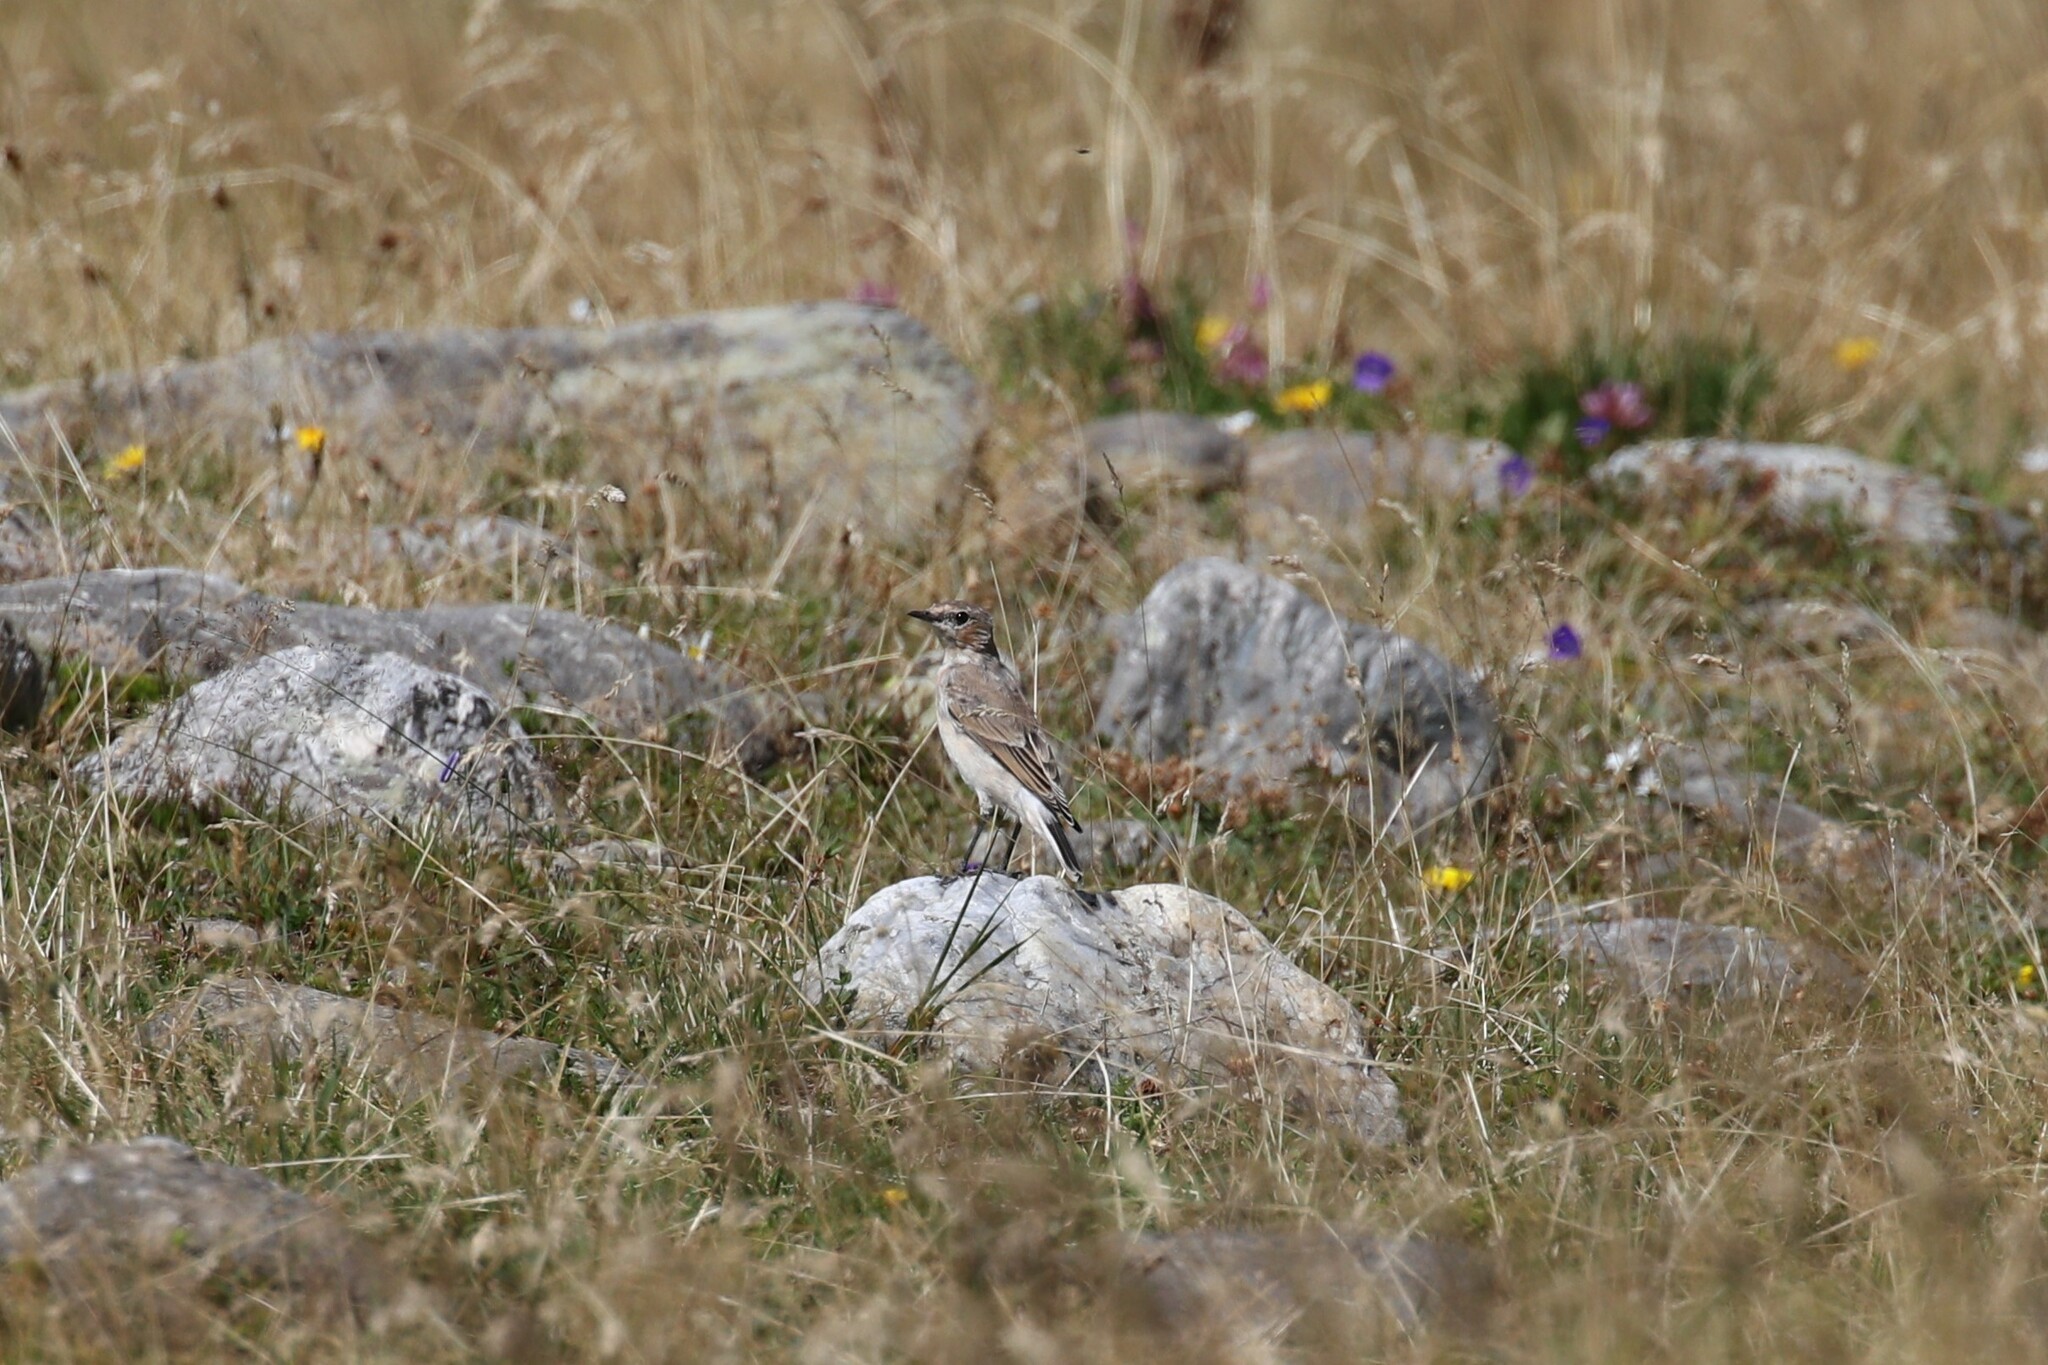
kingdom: Animalia
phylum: Chordata
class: Aves
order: Passeriformes
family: Muscicapidae
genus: Oenanthe
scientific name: Oenanthe oenanthe
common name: Northern wheatear
